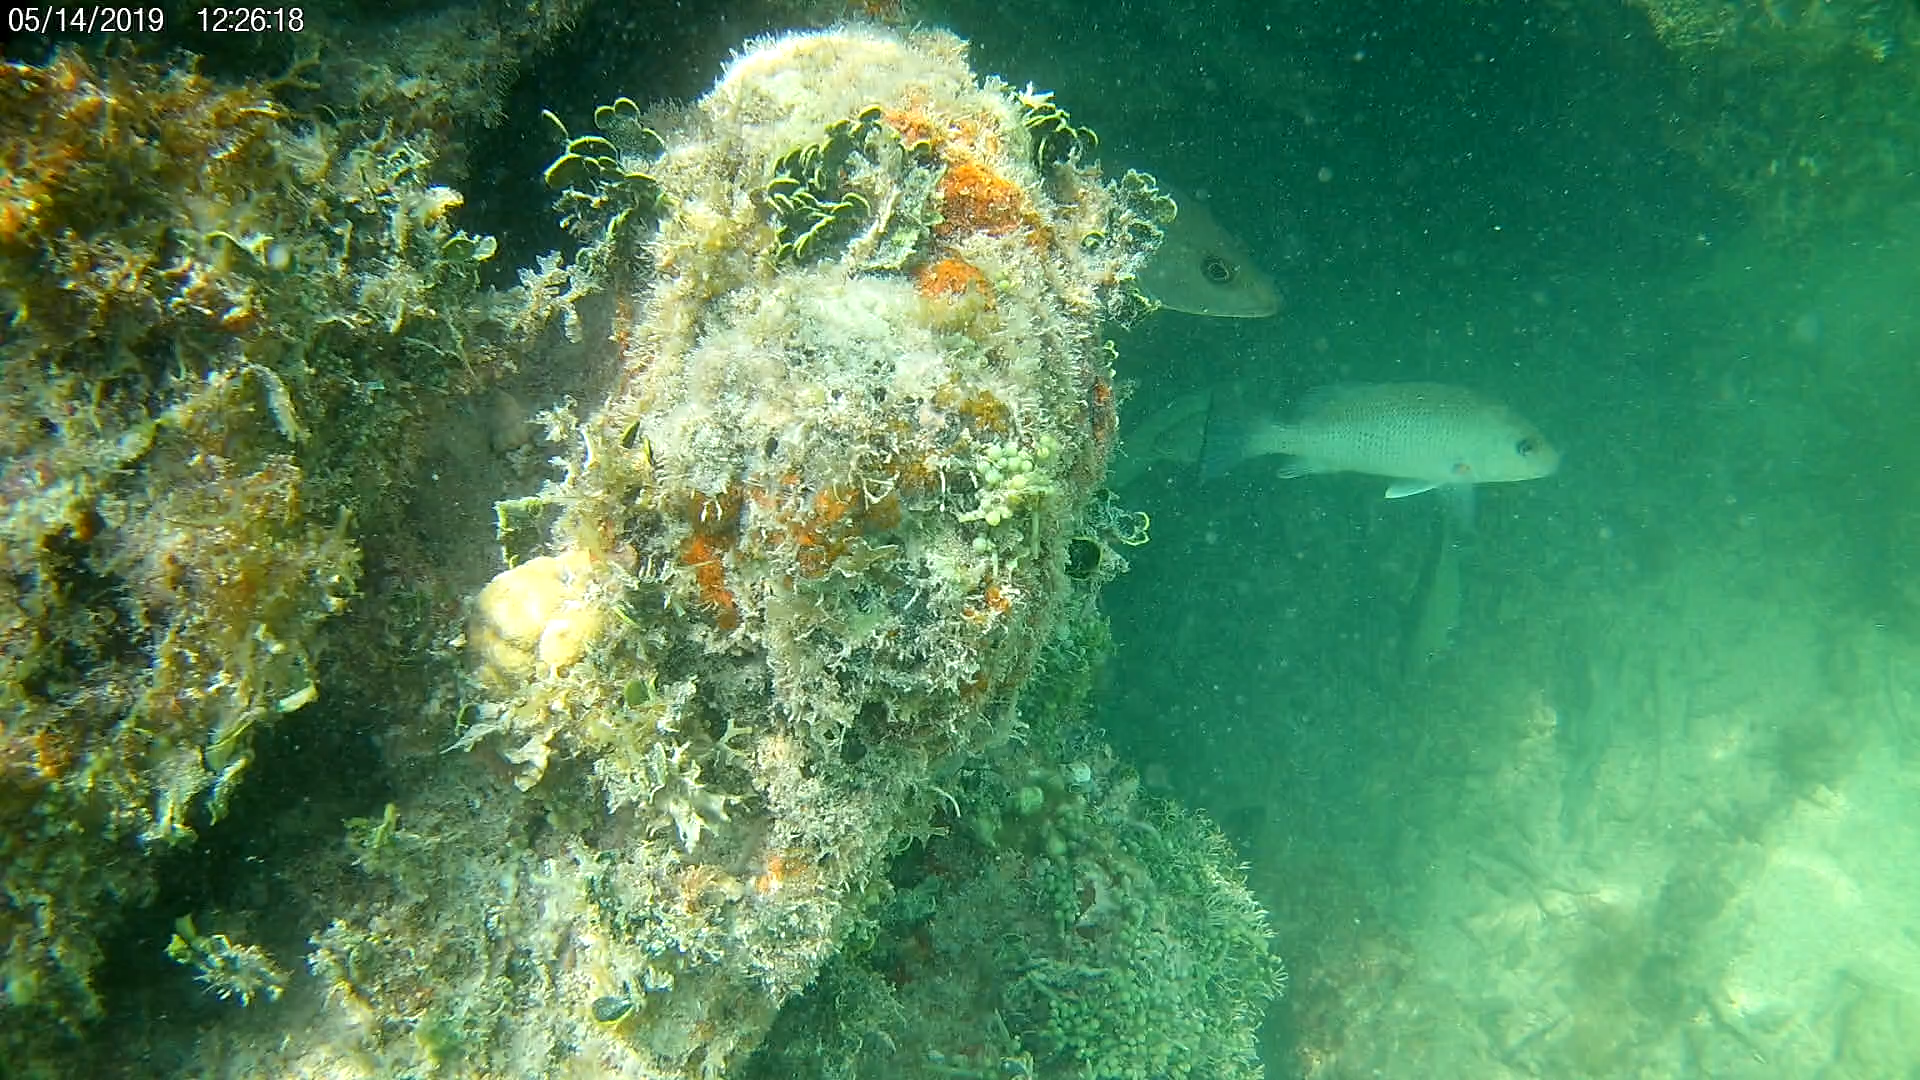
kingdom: Animalia
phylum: Chordata
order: Perciformes
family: Lutjanidae
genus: Lutjanus
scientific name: Lutjanus griseus
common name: Gray snapper
